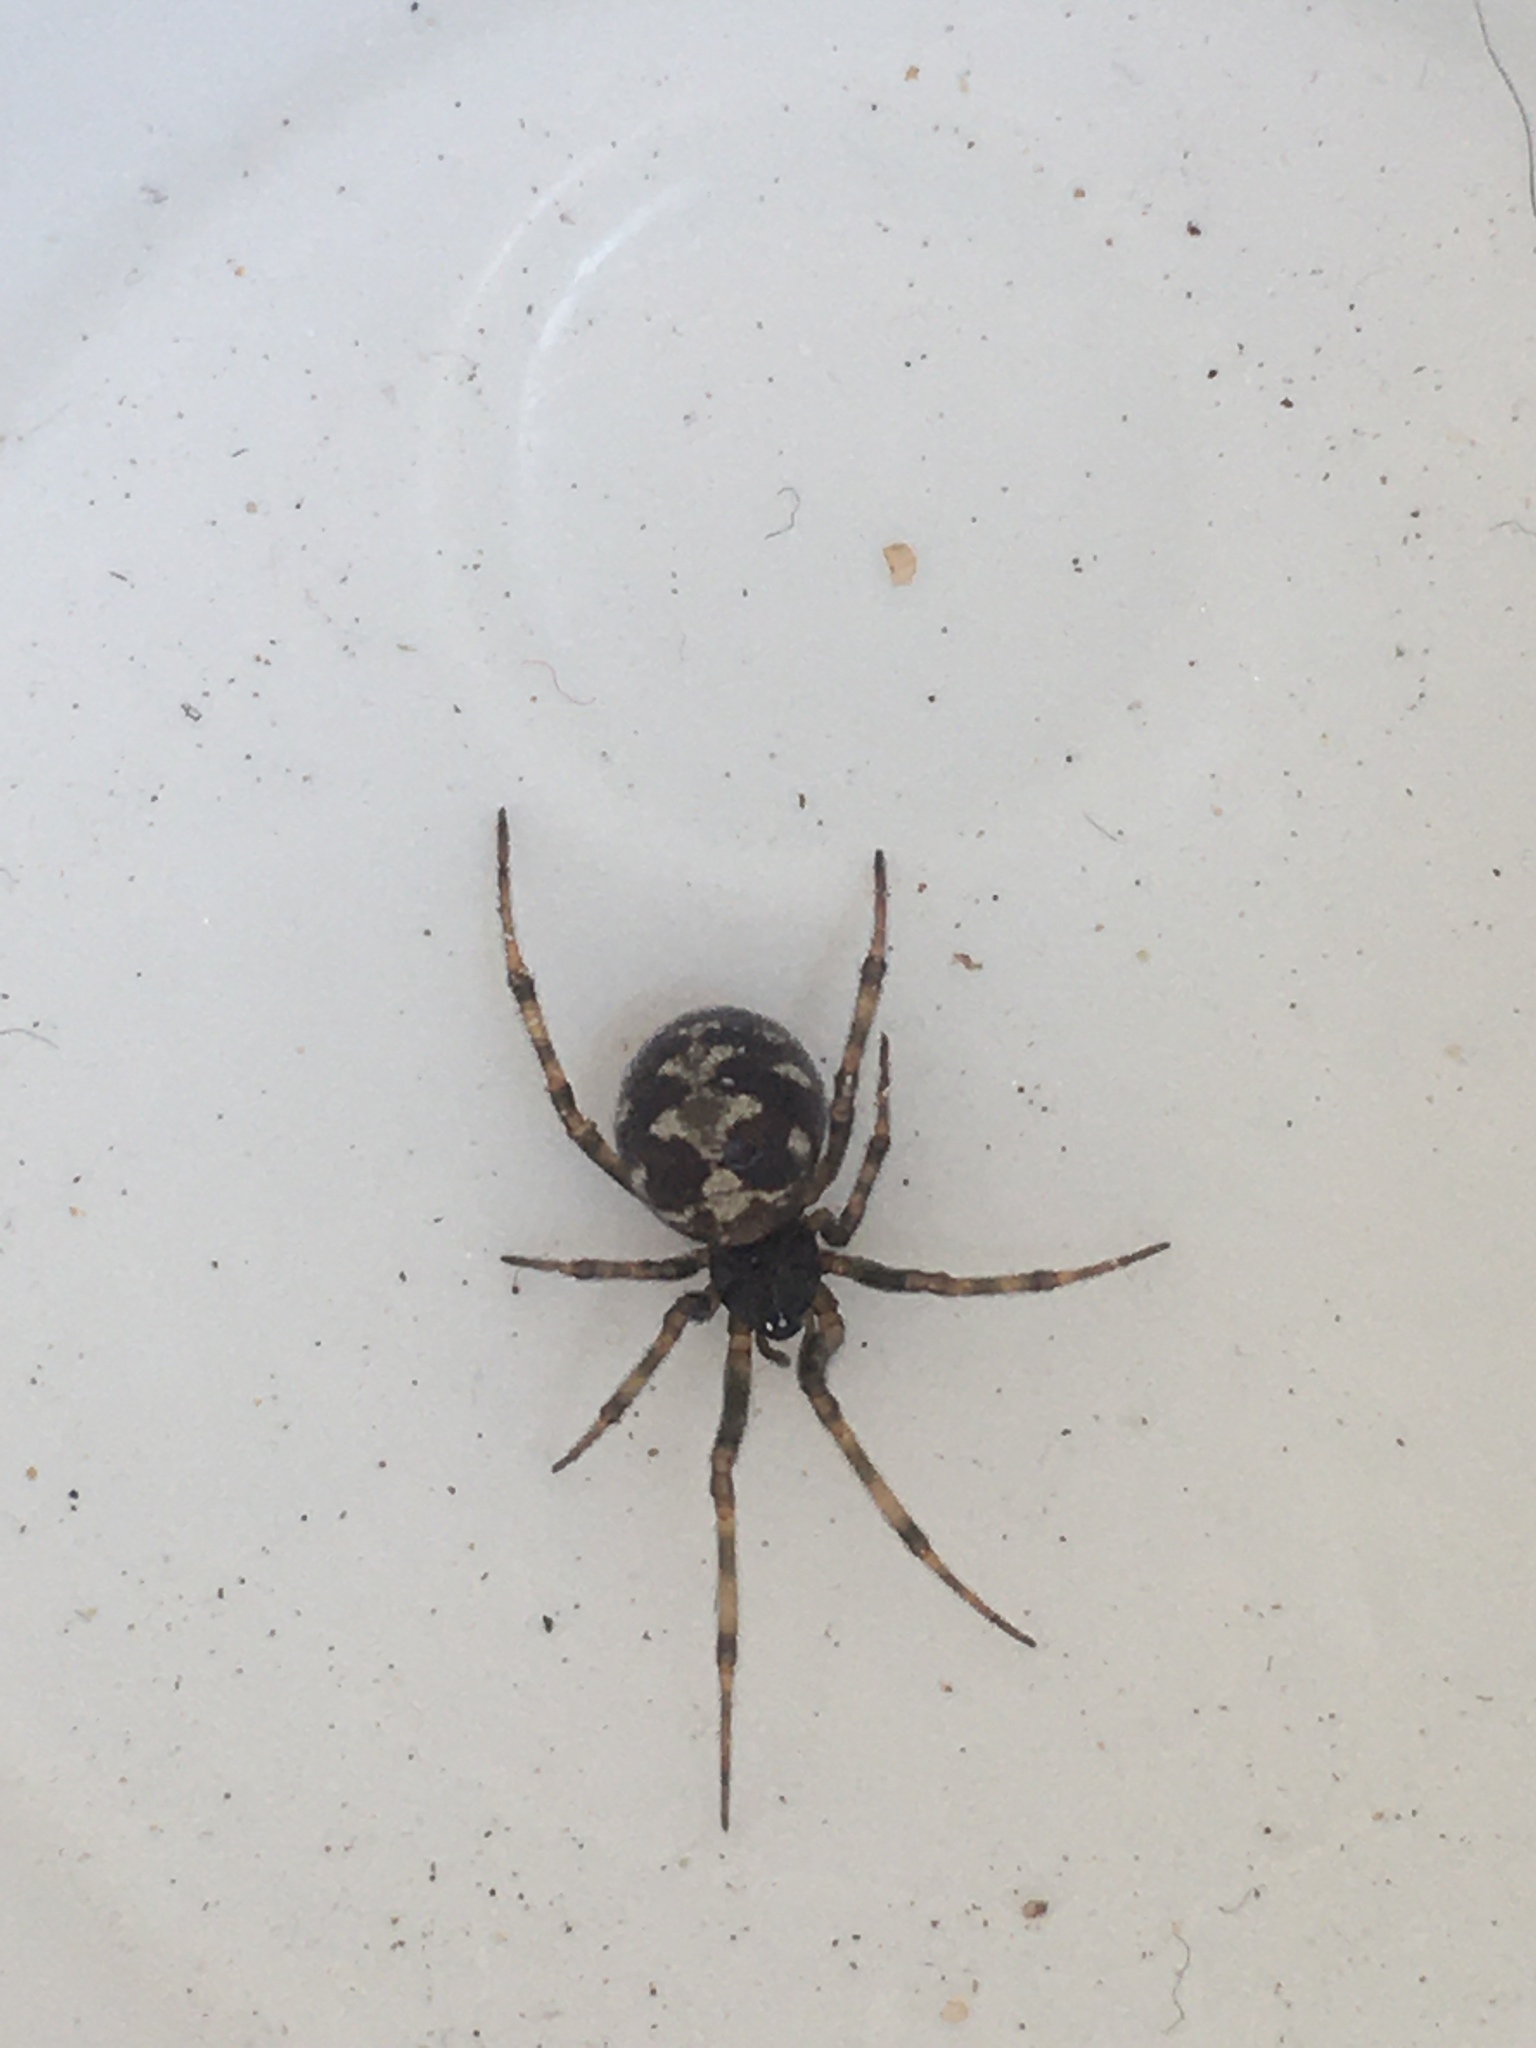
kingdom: Animalia
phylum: Arthropoda
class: Arachnida
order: Araneae
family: Theridiidae
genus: Steatoda
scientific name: Steatoda triangulosa
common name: Triangulate bud spider
